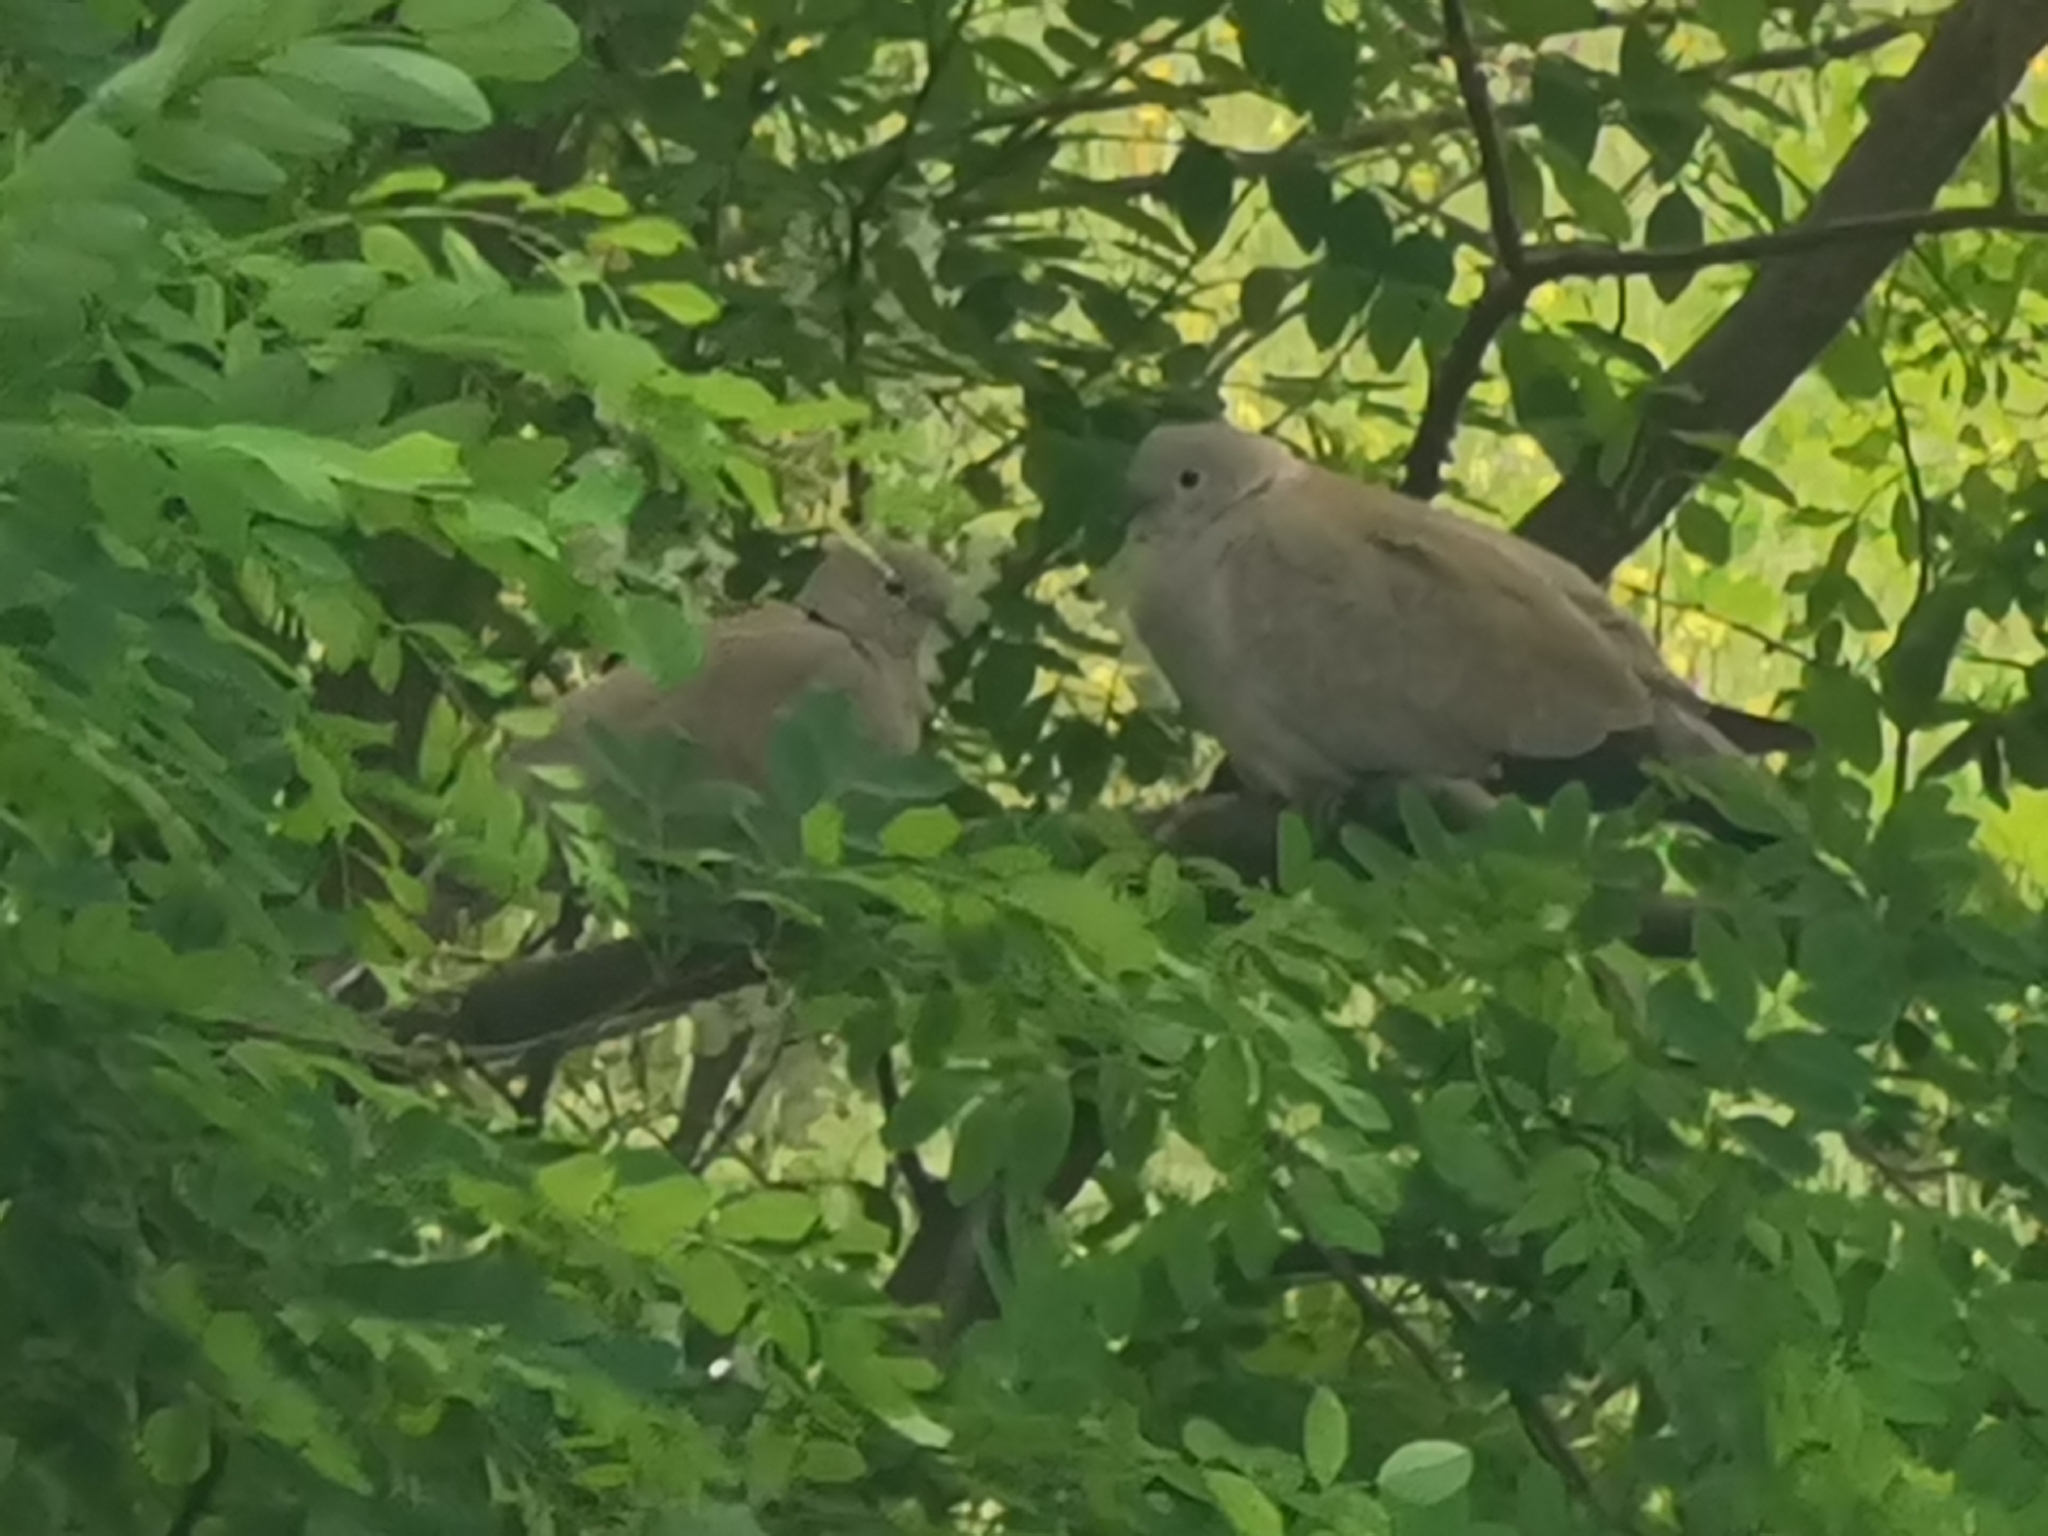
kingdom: Animalia
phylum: Chordata
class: Aves
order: Columbiformes
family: Columbidae
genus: Streptopelia
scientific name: Streptopelia decaocto
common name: Eurasian collared dove
